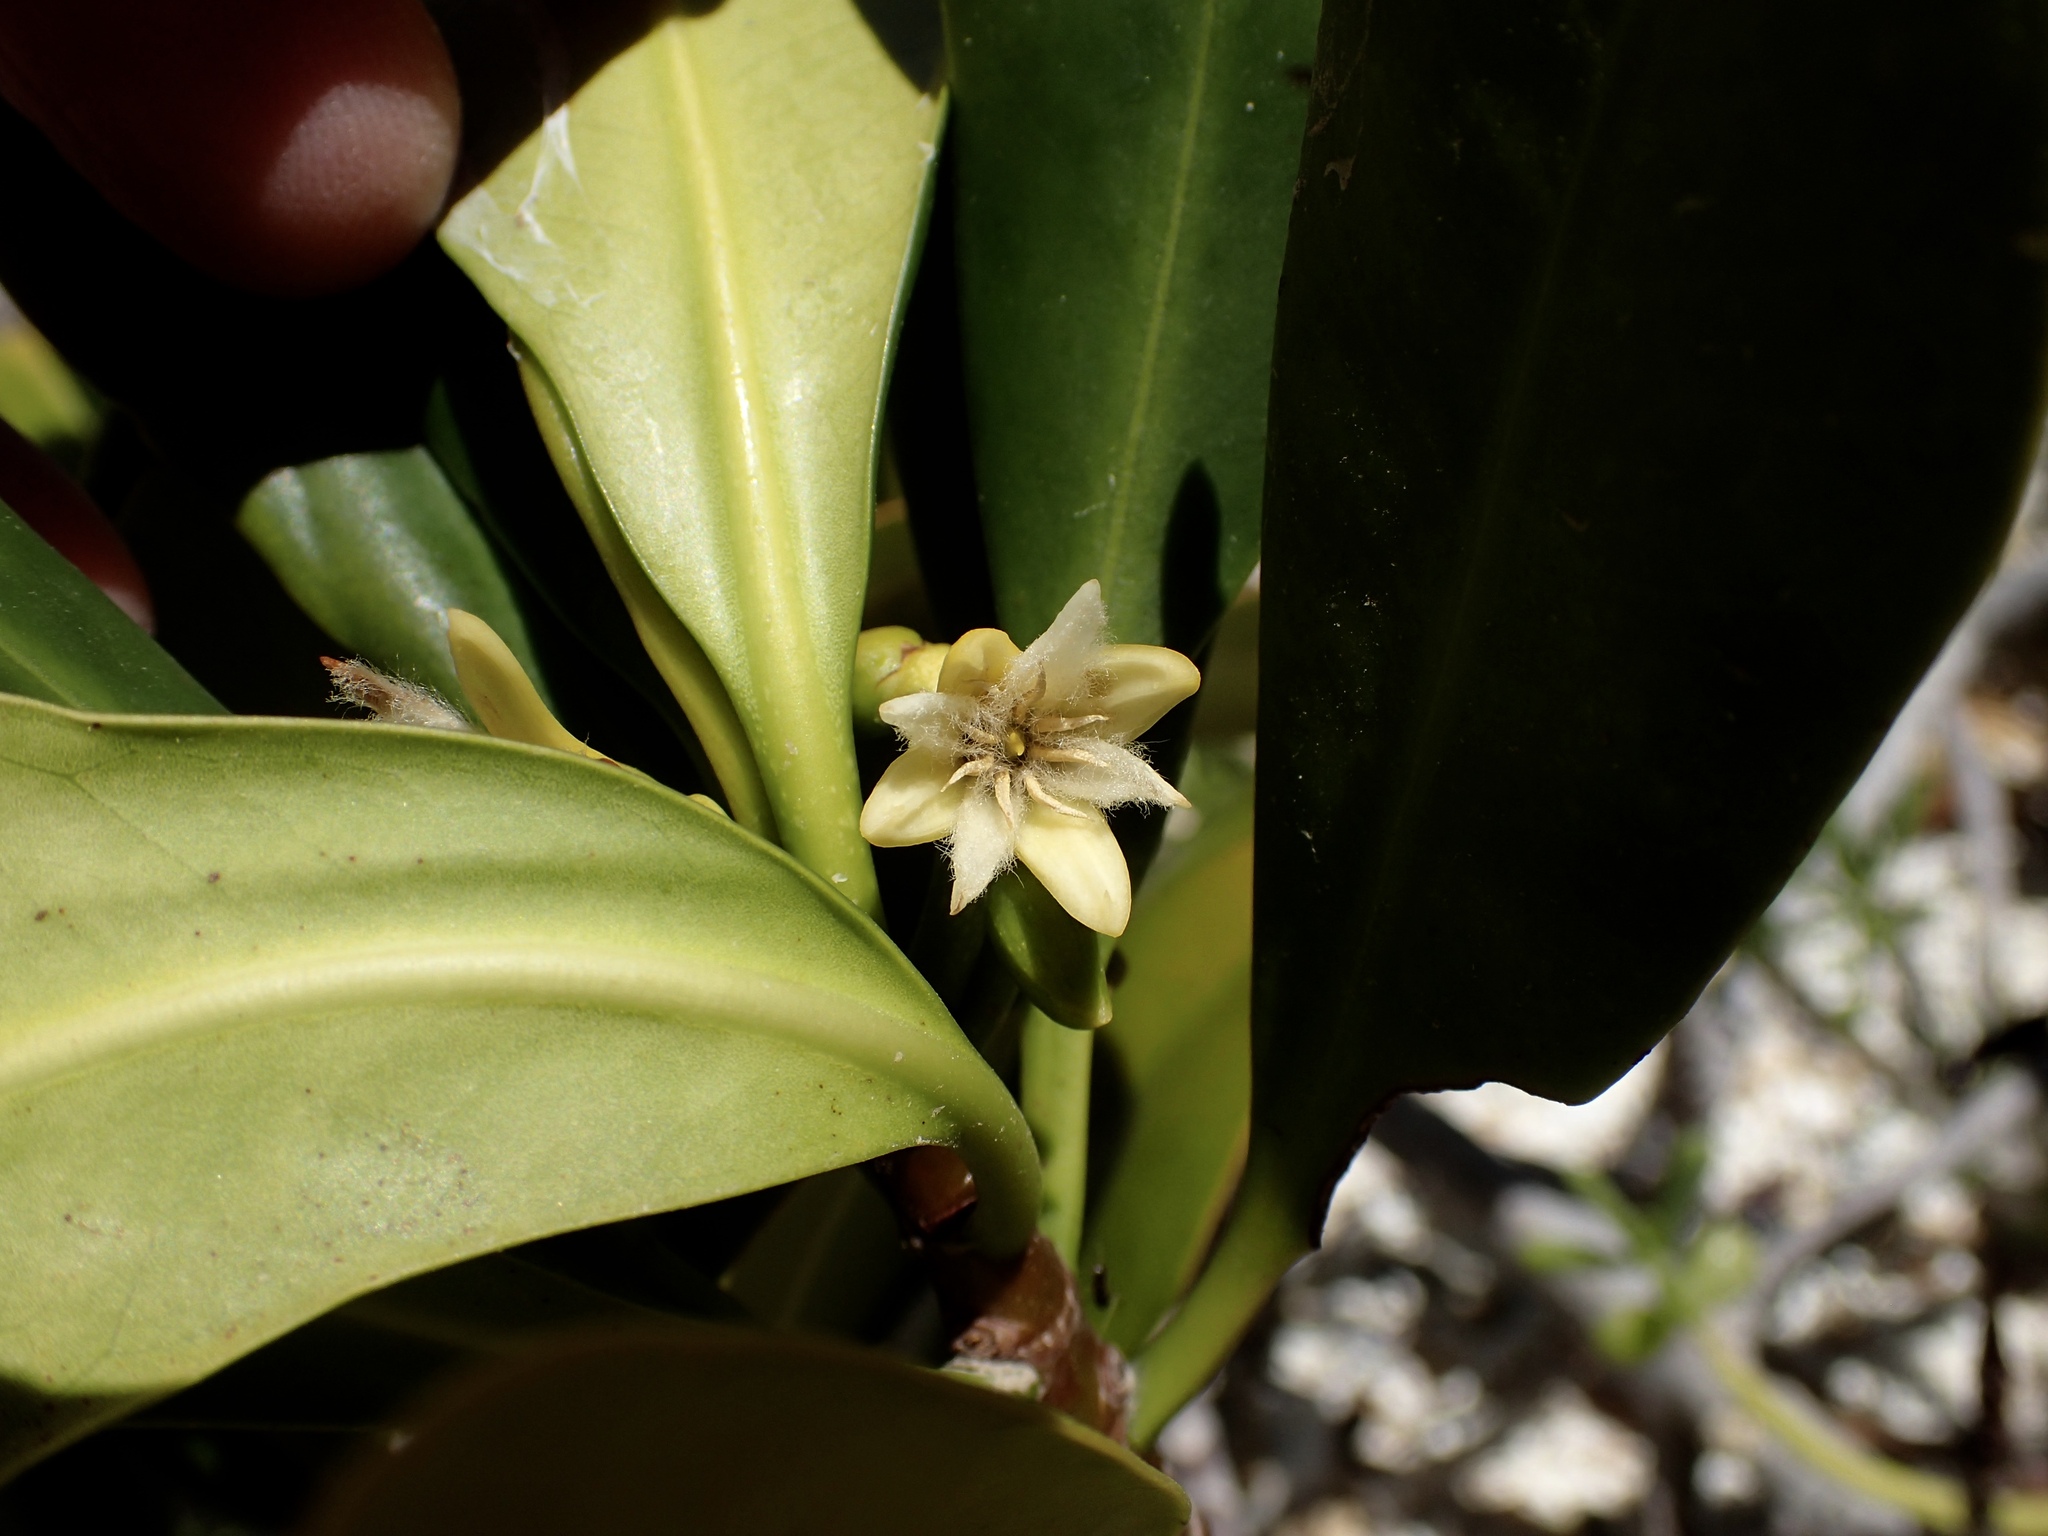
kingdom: Plantae
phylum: Tracheophyta
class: Magnoliopsida
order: Malpighiales
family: Rhizophoraceae
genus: Rhizophora
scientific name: Rhizophora mangle
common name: Red mangrove
